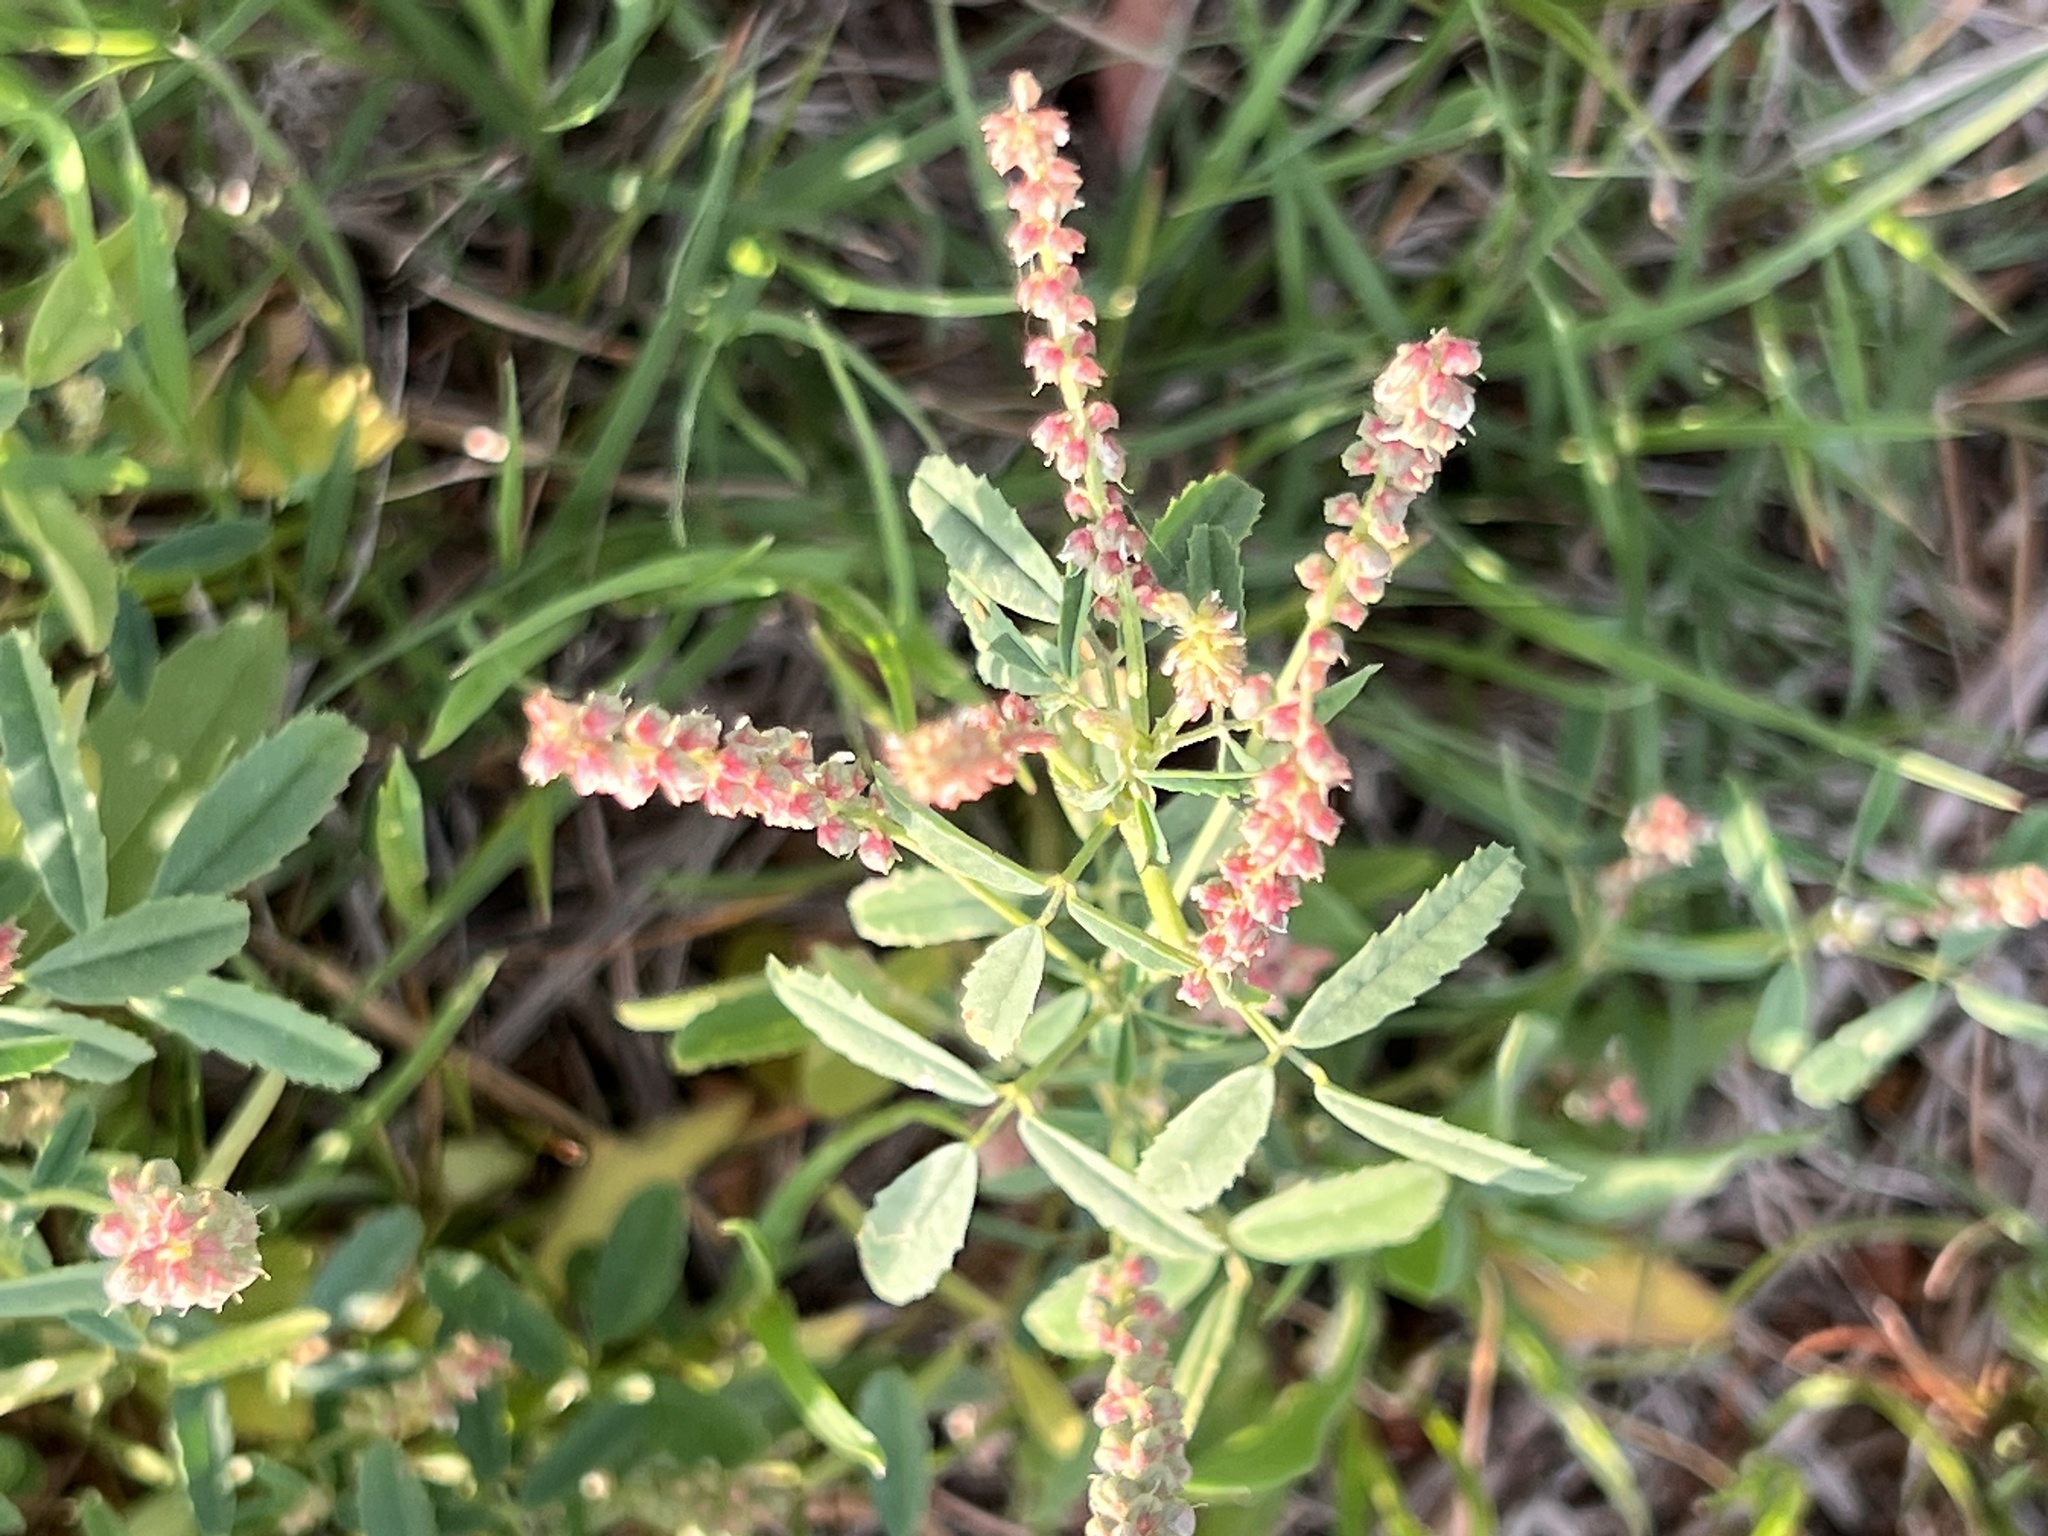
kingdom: Plantae
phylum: Tracheophyta
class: Magnoliopsida
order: Fabales
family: Fabaceae
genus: Melilotus
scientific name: Melilotus indicus
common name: Small melilot
